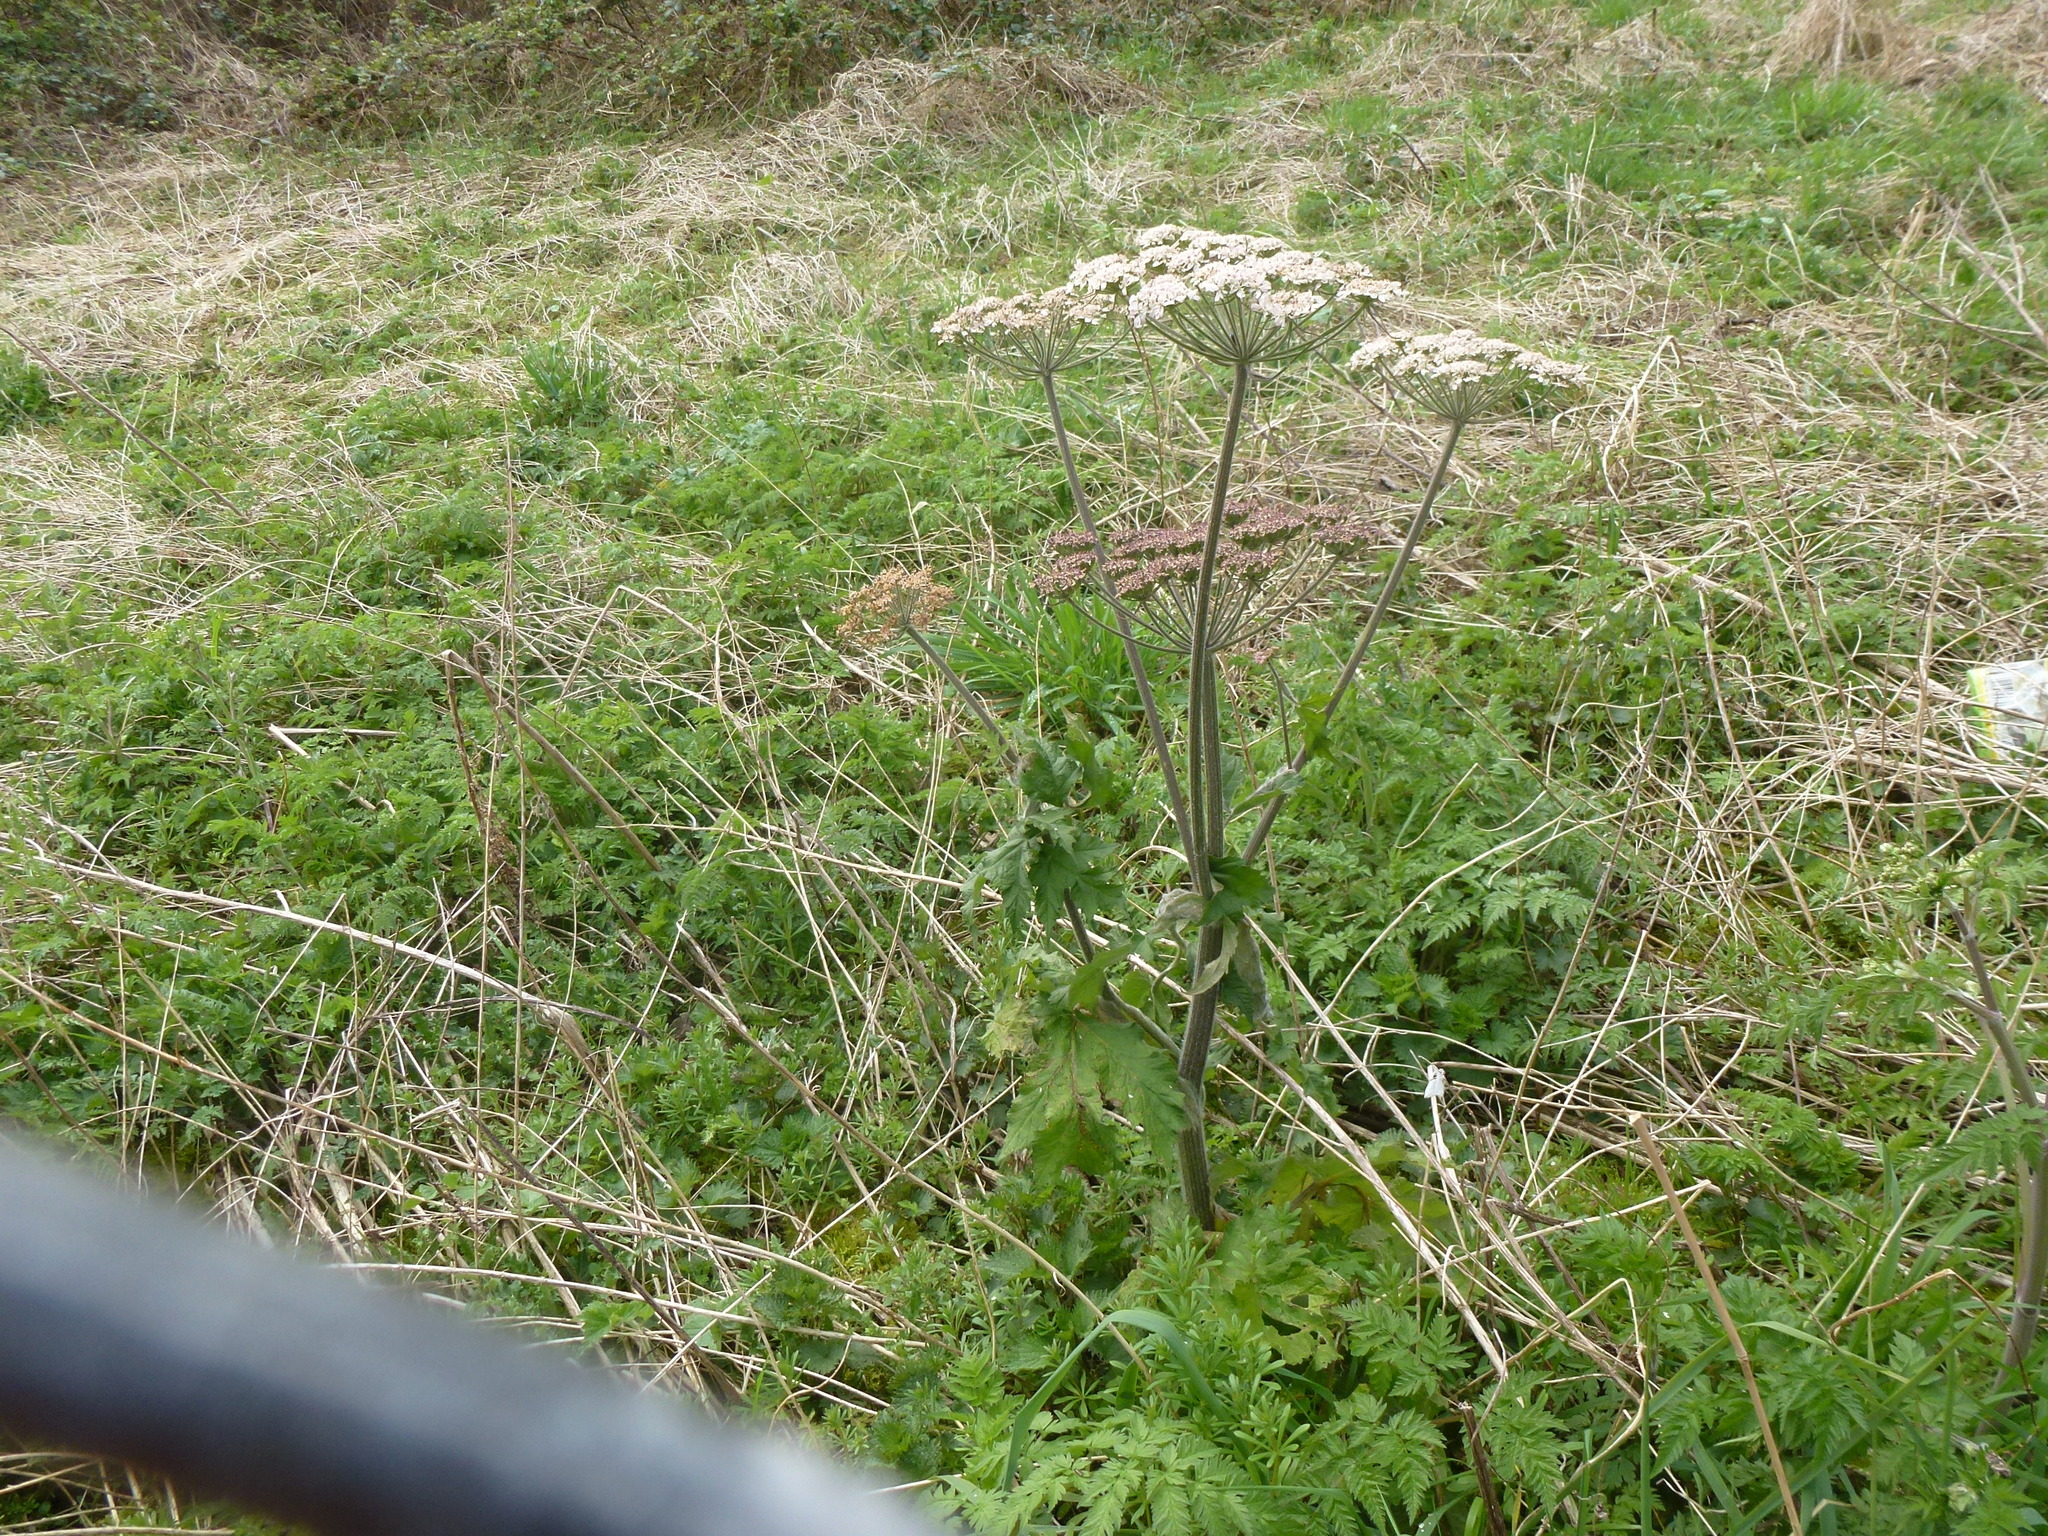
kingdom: Plantae
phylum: Tracheophyta
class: Magnoliopsida
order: Apiales
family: Apiaceae
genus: Heracleum
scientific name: Heracleum sphondylium
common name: Hogweed
